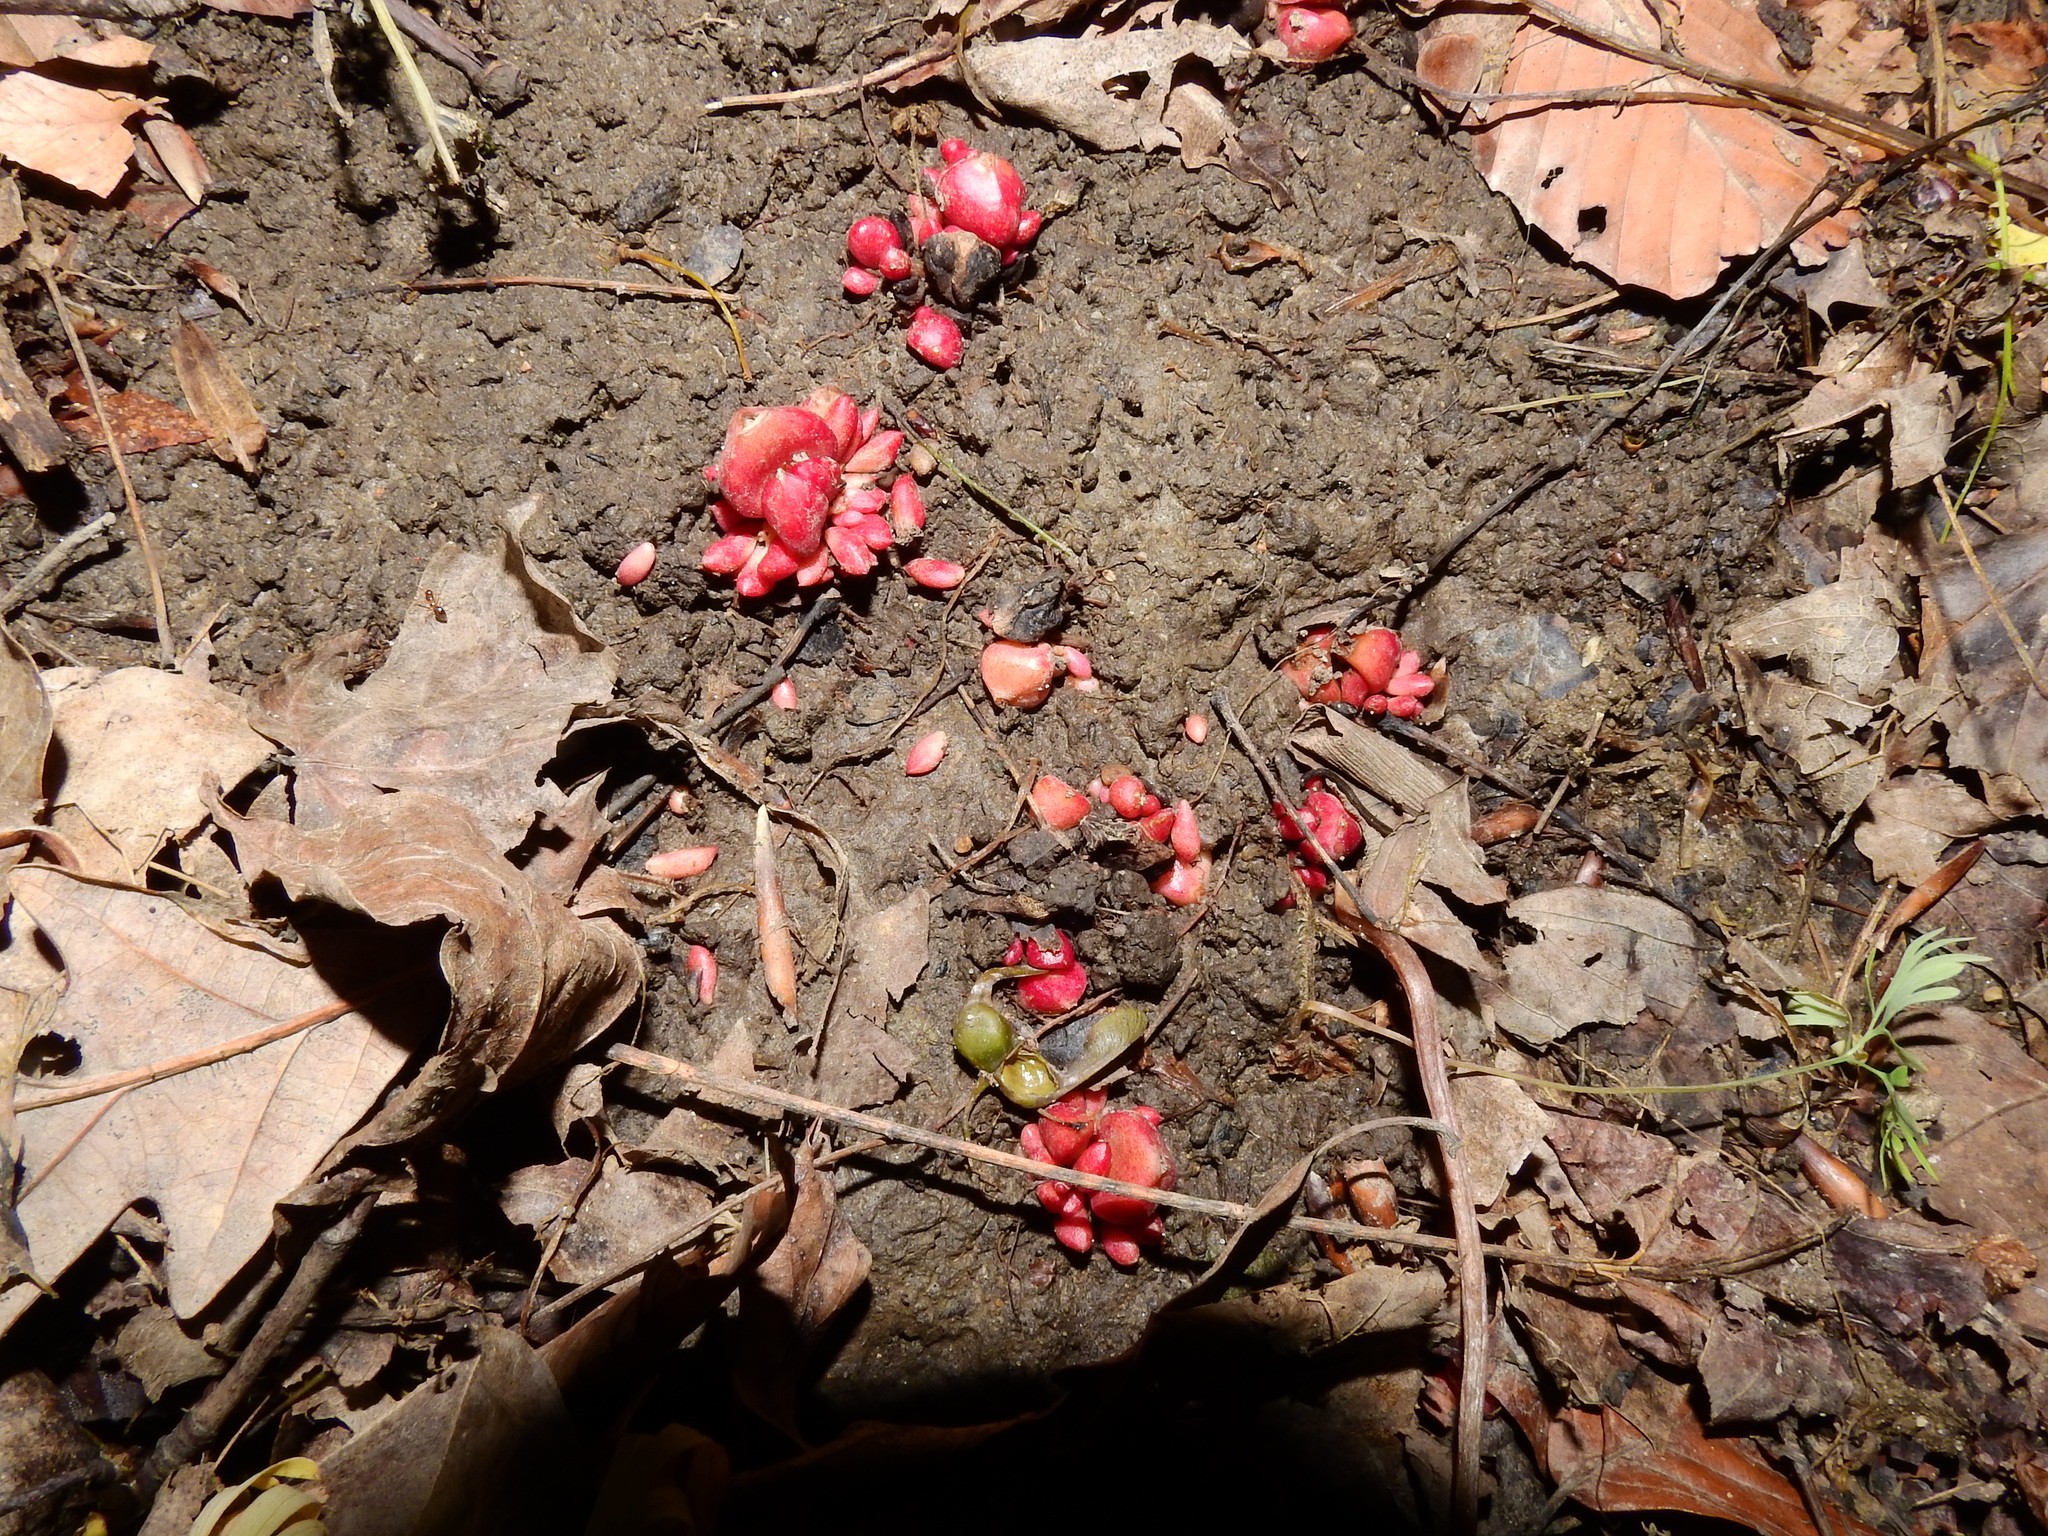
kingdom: Plantae
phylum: Tracheophyta
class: Magnoliopsida
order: Ranunculales
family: Papaveraceae
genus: Dicentra
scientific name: Dicentra cucullaria
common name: Dutchman's breeches
